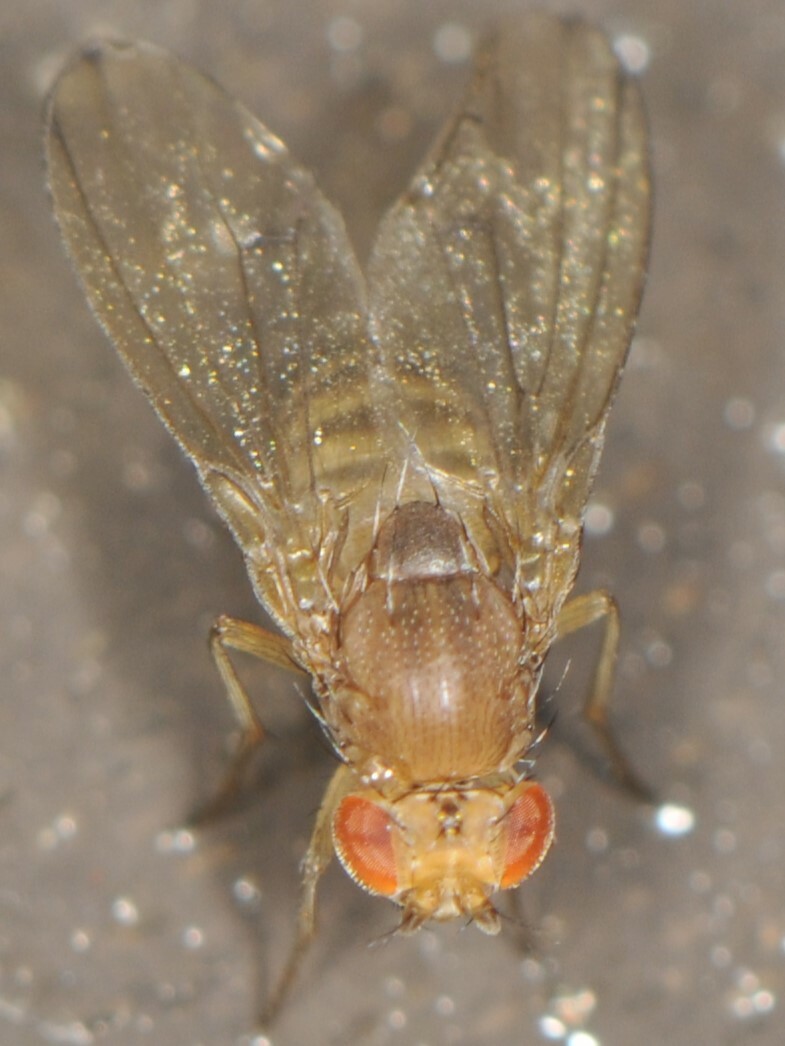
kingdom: Animalia
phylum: Arthropoda
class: Insecta
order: Diptera
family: Drosophilidae
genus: Drosophila
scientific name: Drosophila immigrans
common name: Pomace fly
